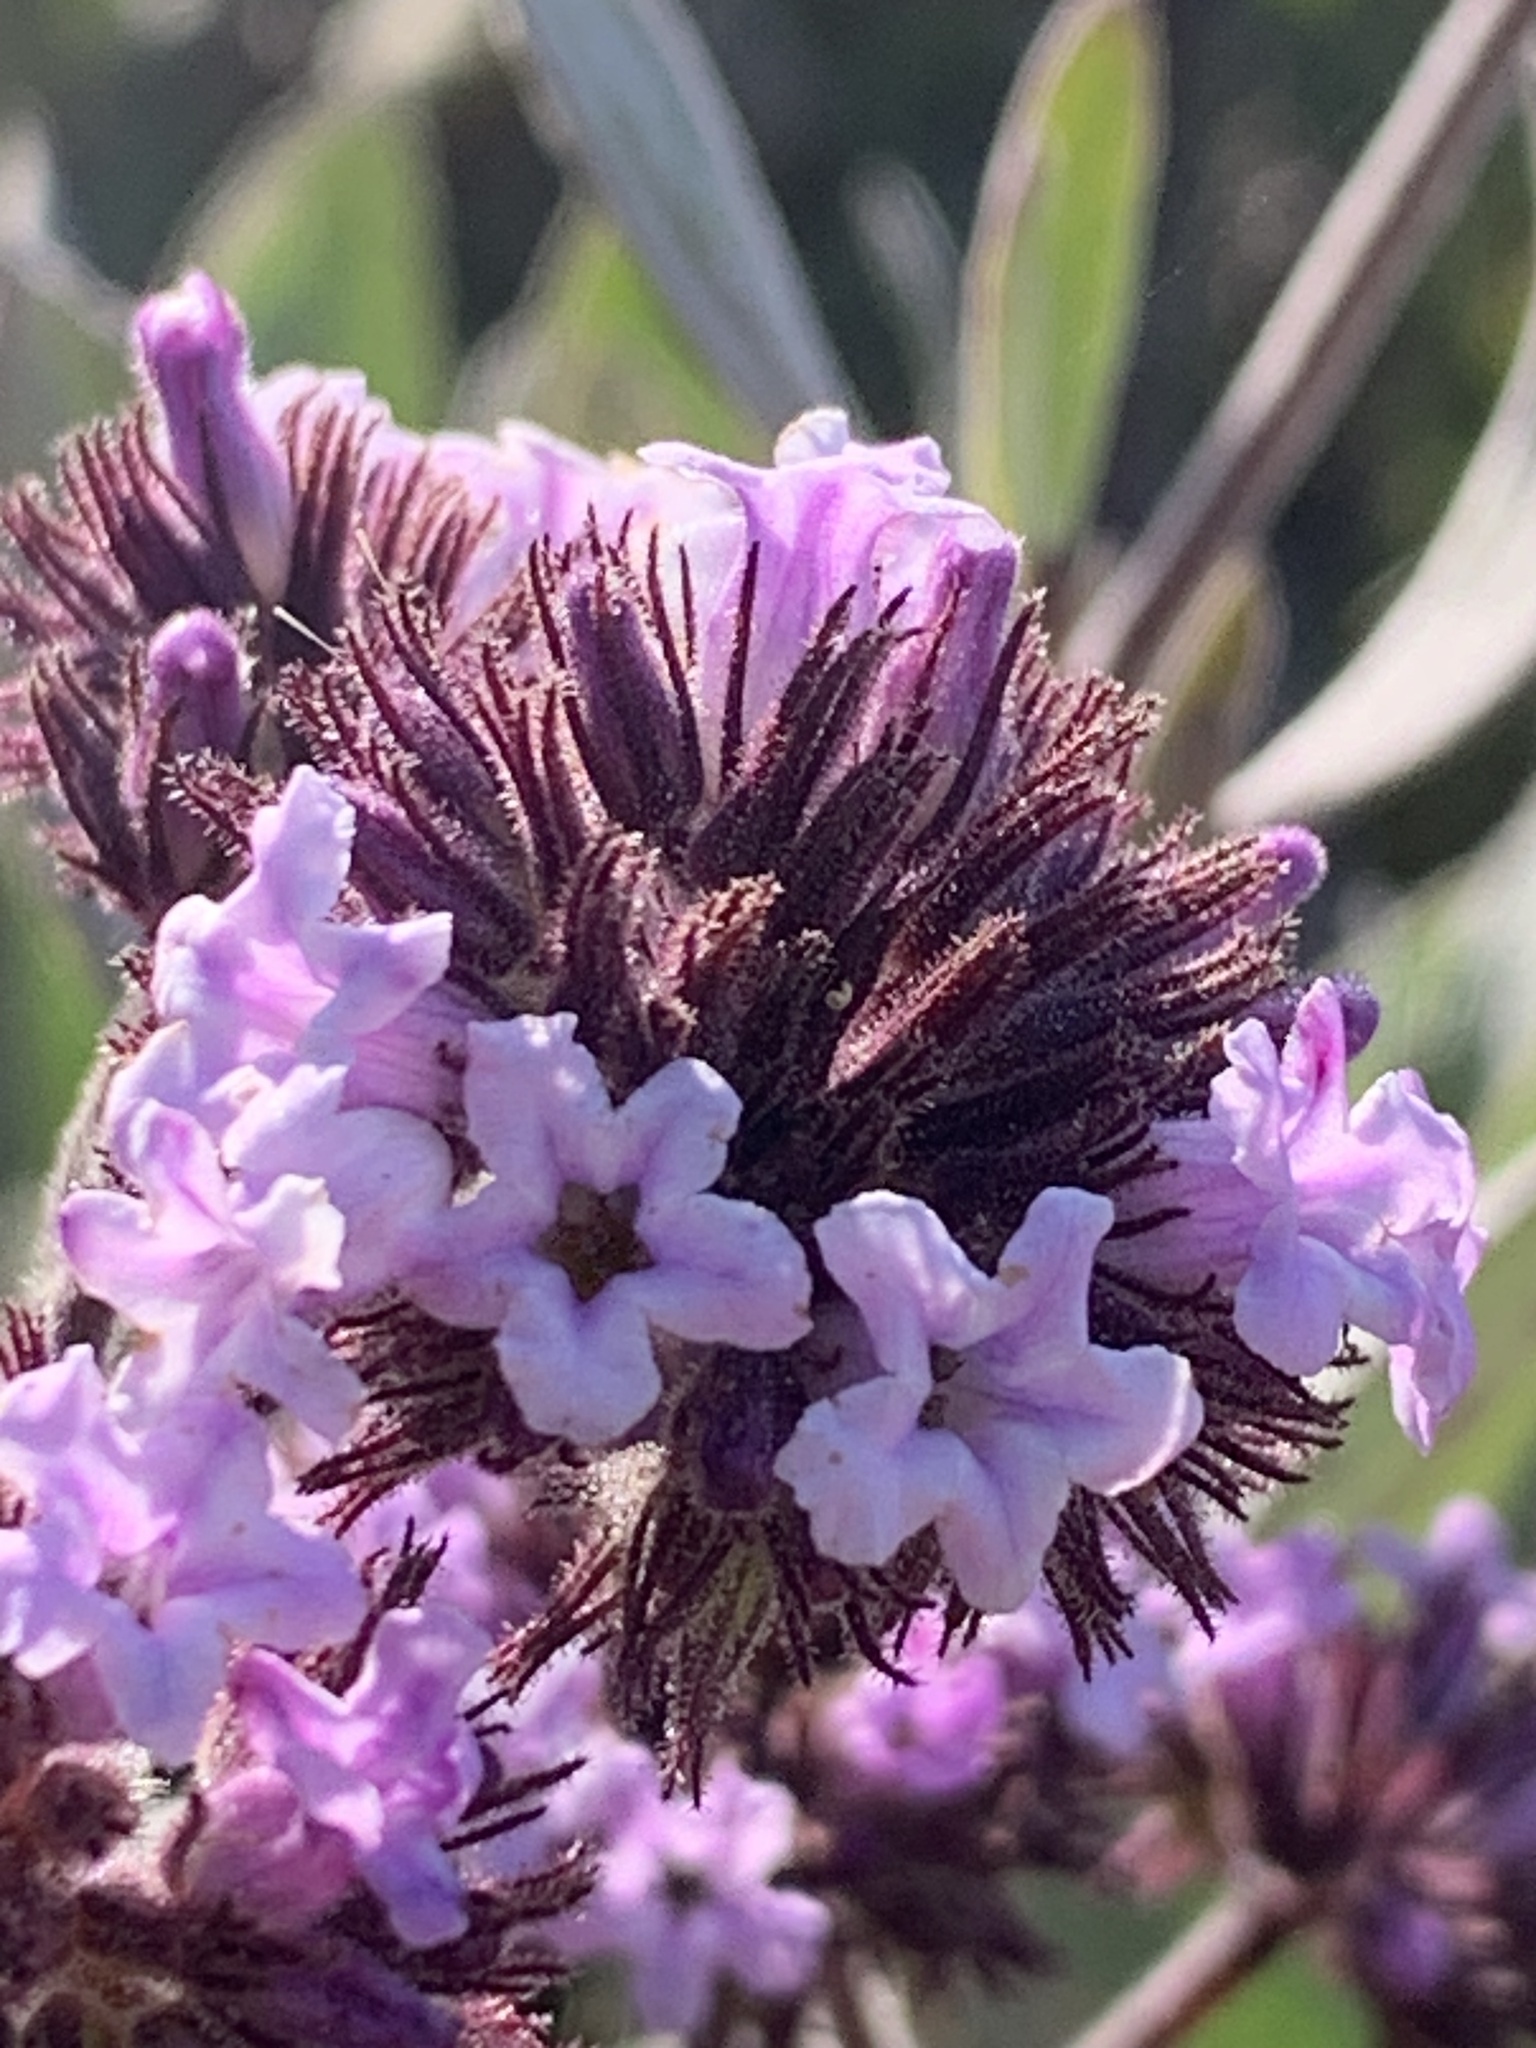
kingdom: Plantae
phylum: Tracheophyta
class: Magnoliopsida
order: Boraginales
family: Namaceae
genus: Eriodictyon
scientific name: Eriodictyon traskiae
